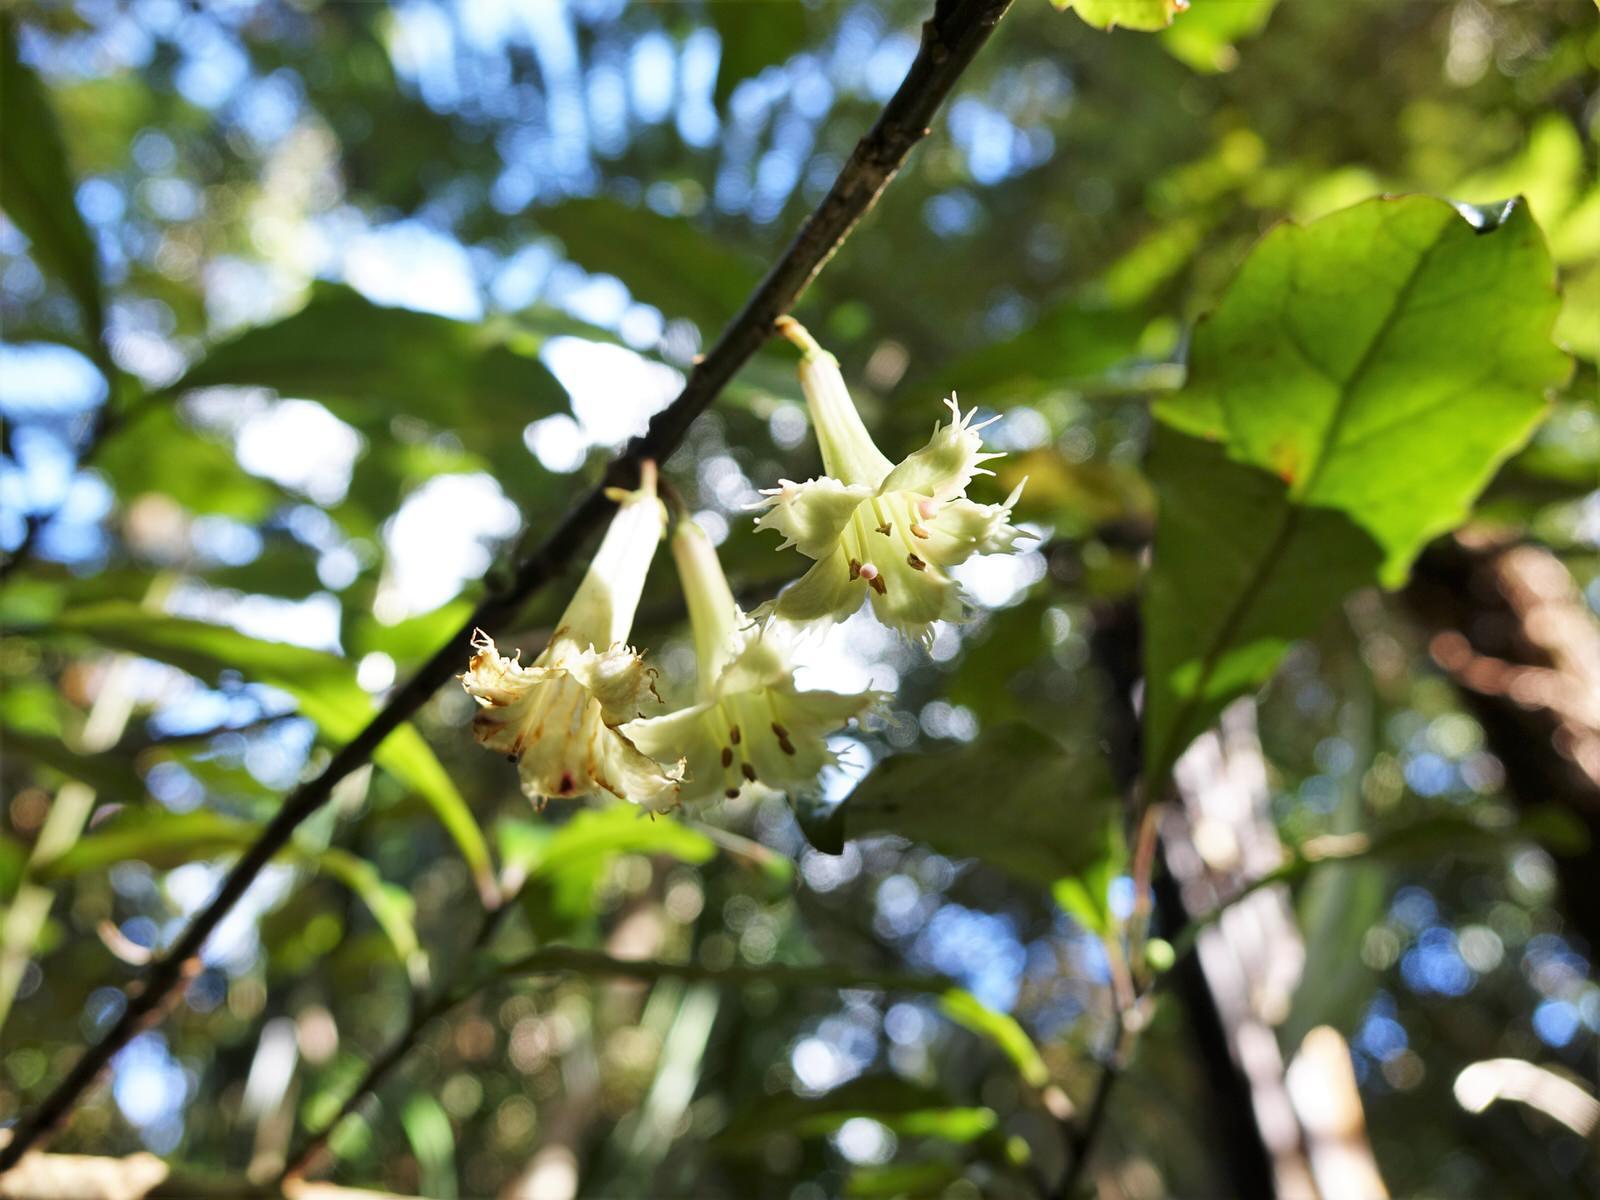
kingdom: Plantae
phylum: Tracheophyta
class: Magnoliopsida
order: Asterales
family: Alseuosmiaceae
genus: Alseuosmia
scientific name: Alseuosmia macrophylla
